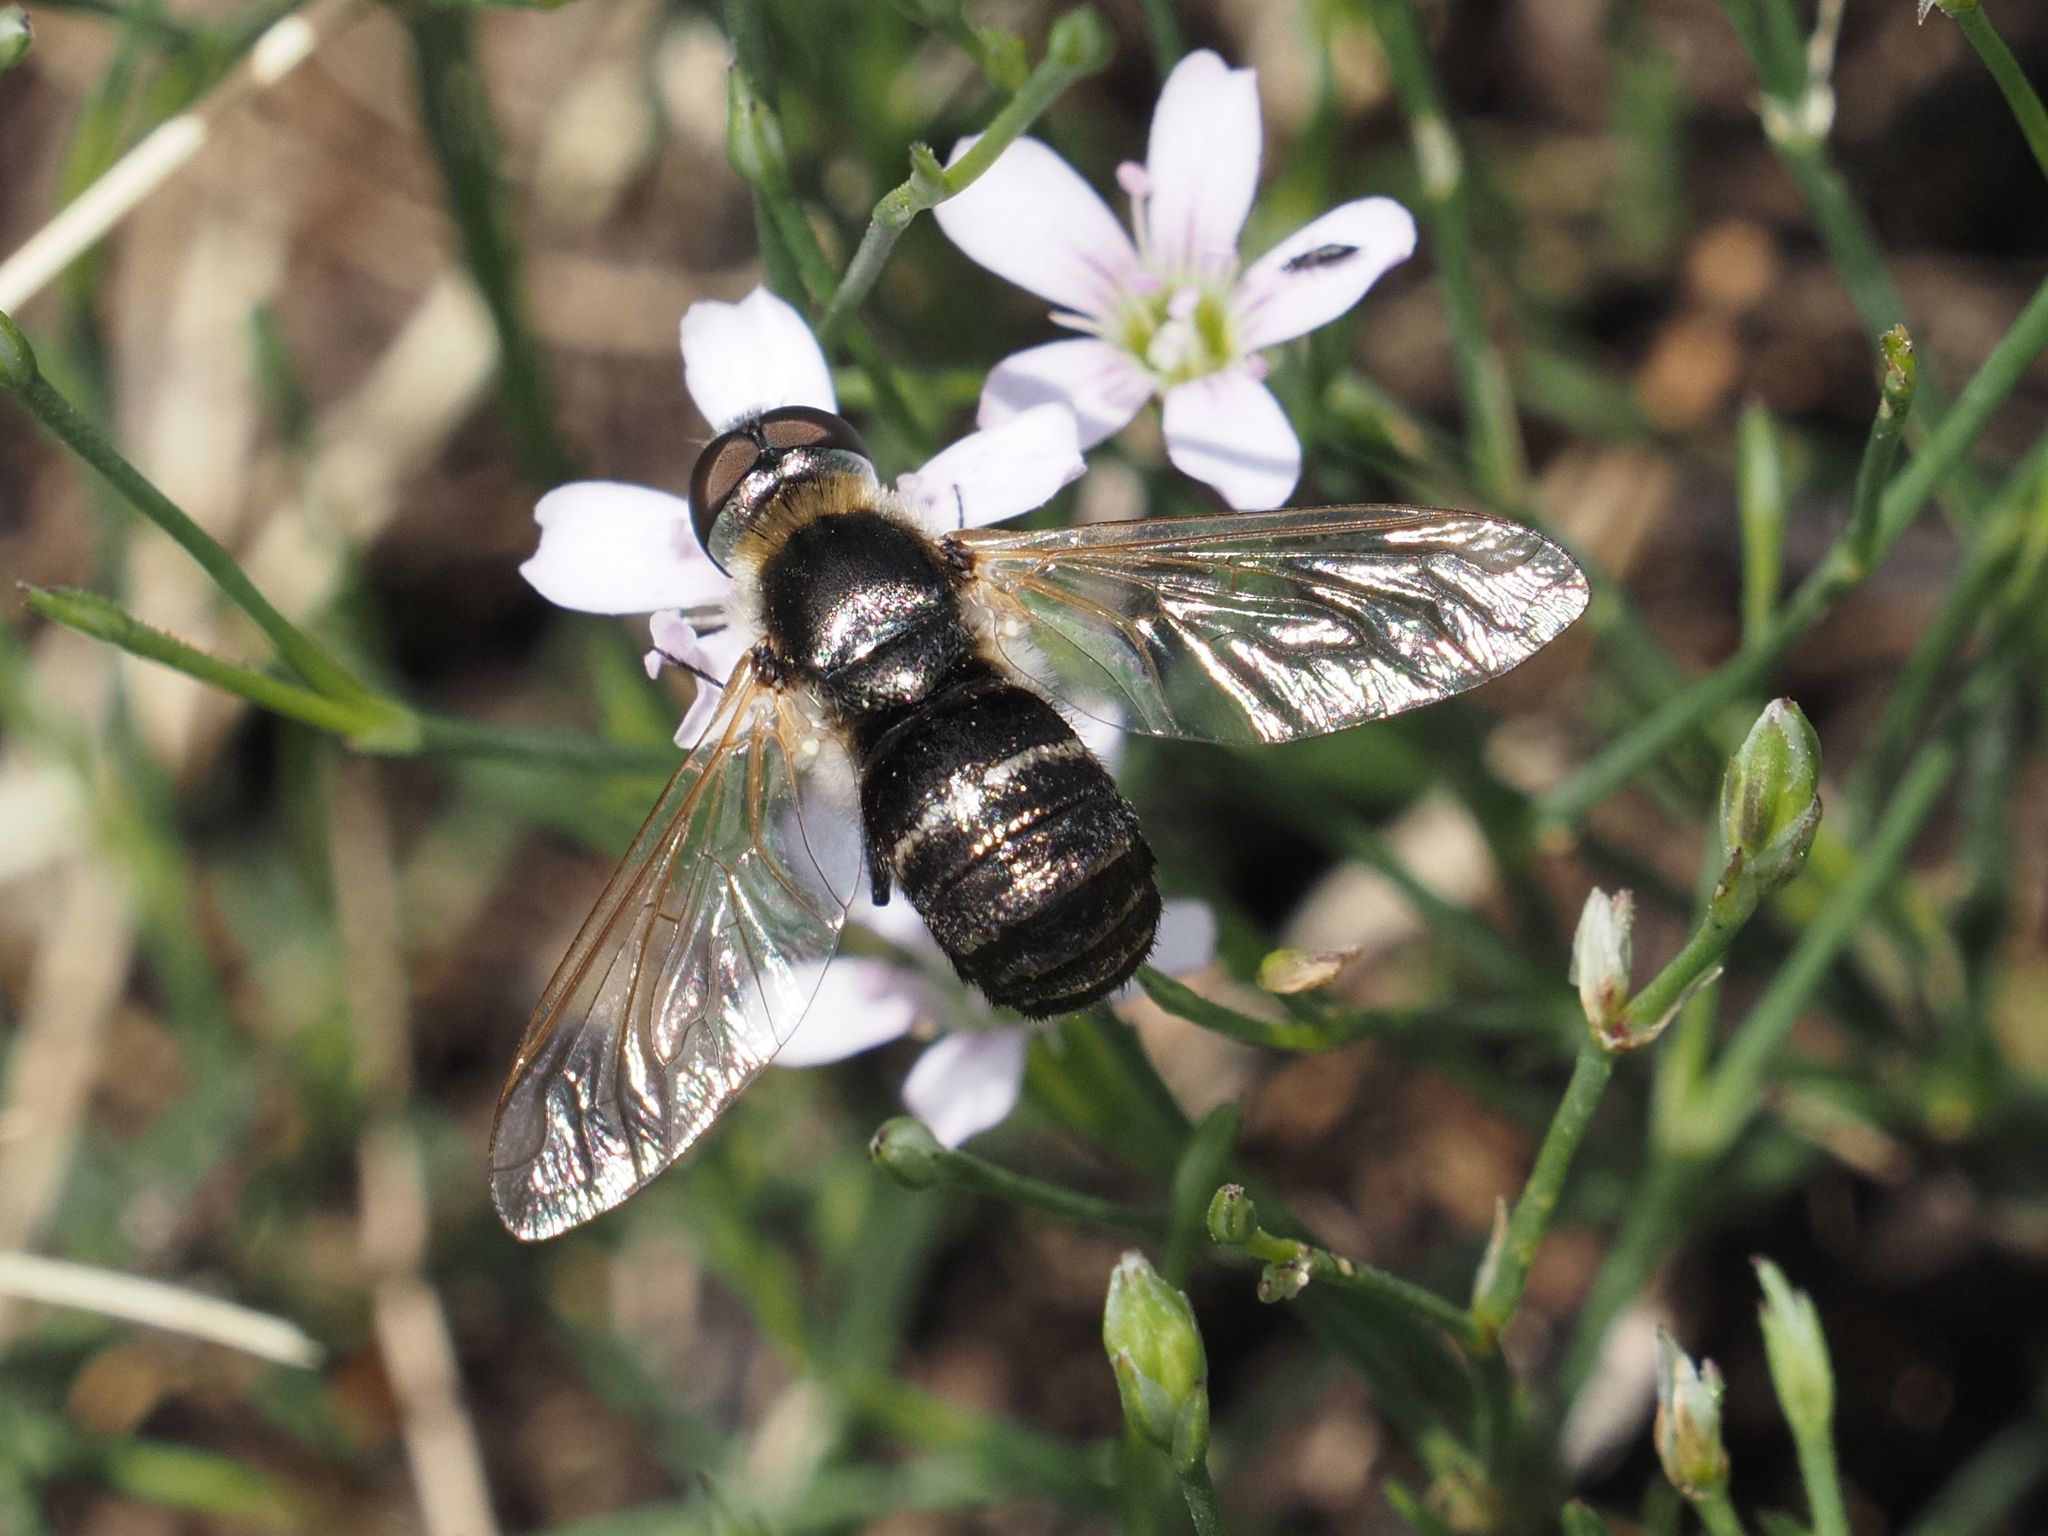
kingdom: Animalia
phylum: Arthropoda
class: Insecta
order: Diptera
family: Bombyliidae
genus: Micomitra
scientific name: Micomitra stupida
